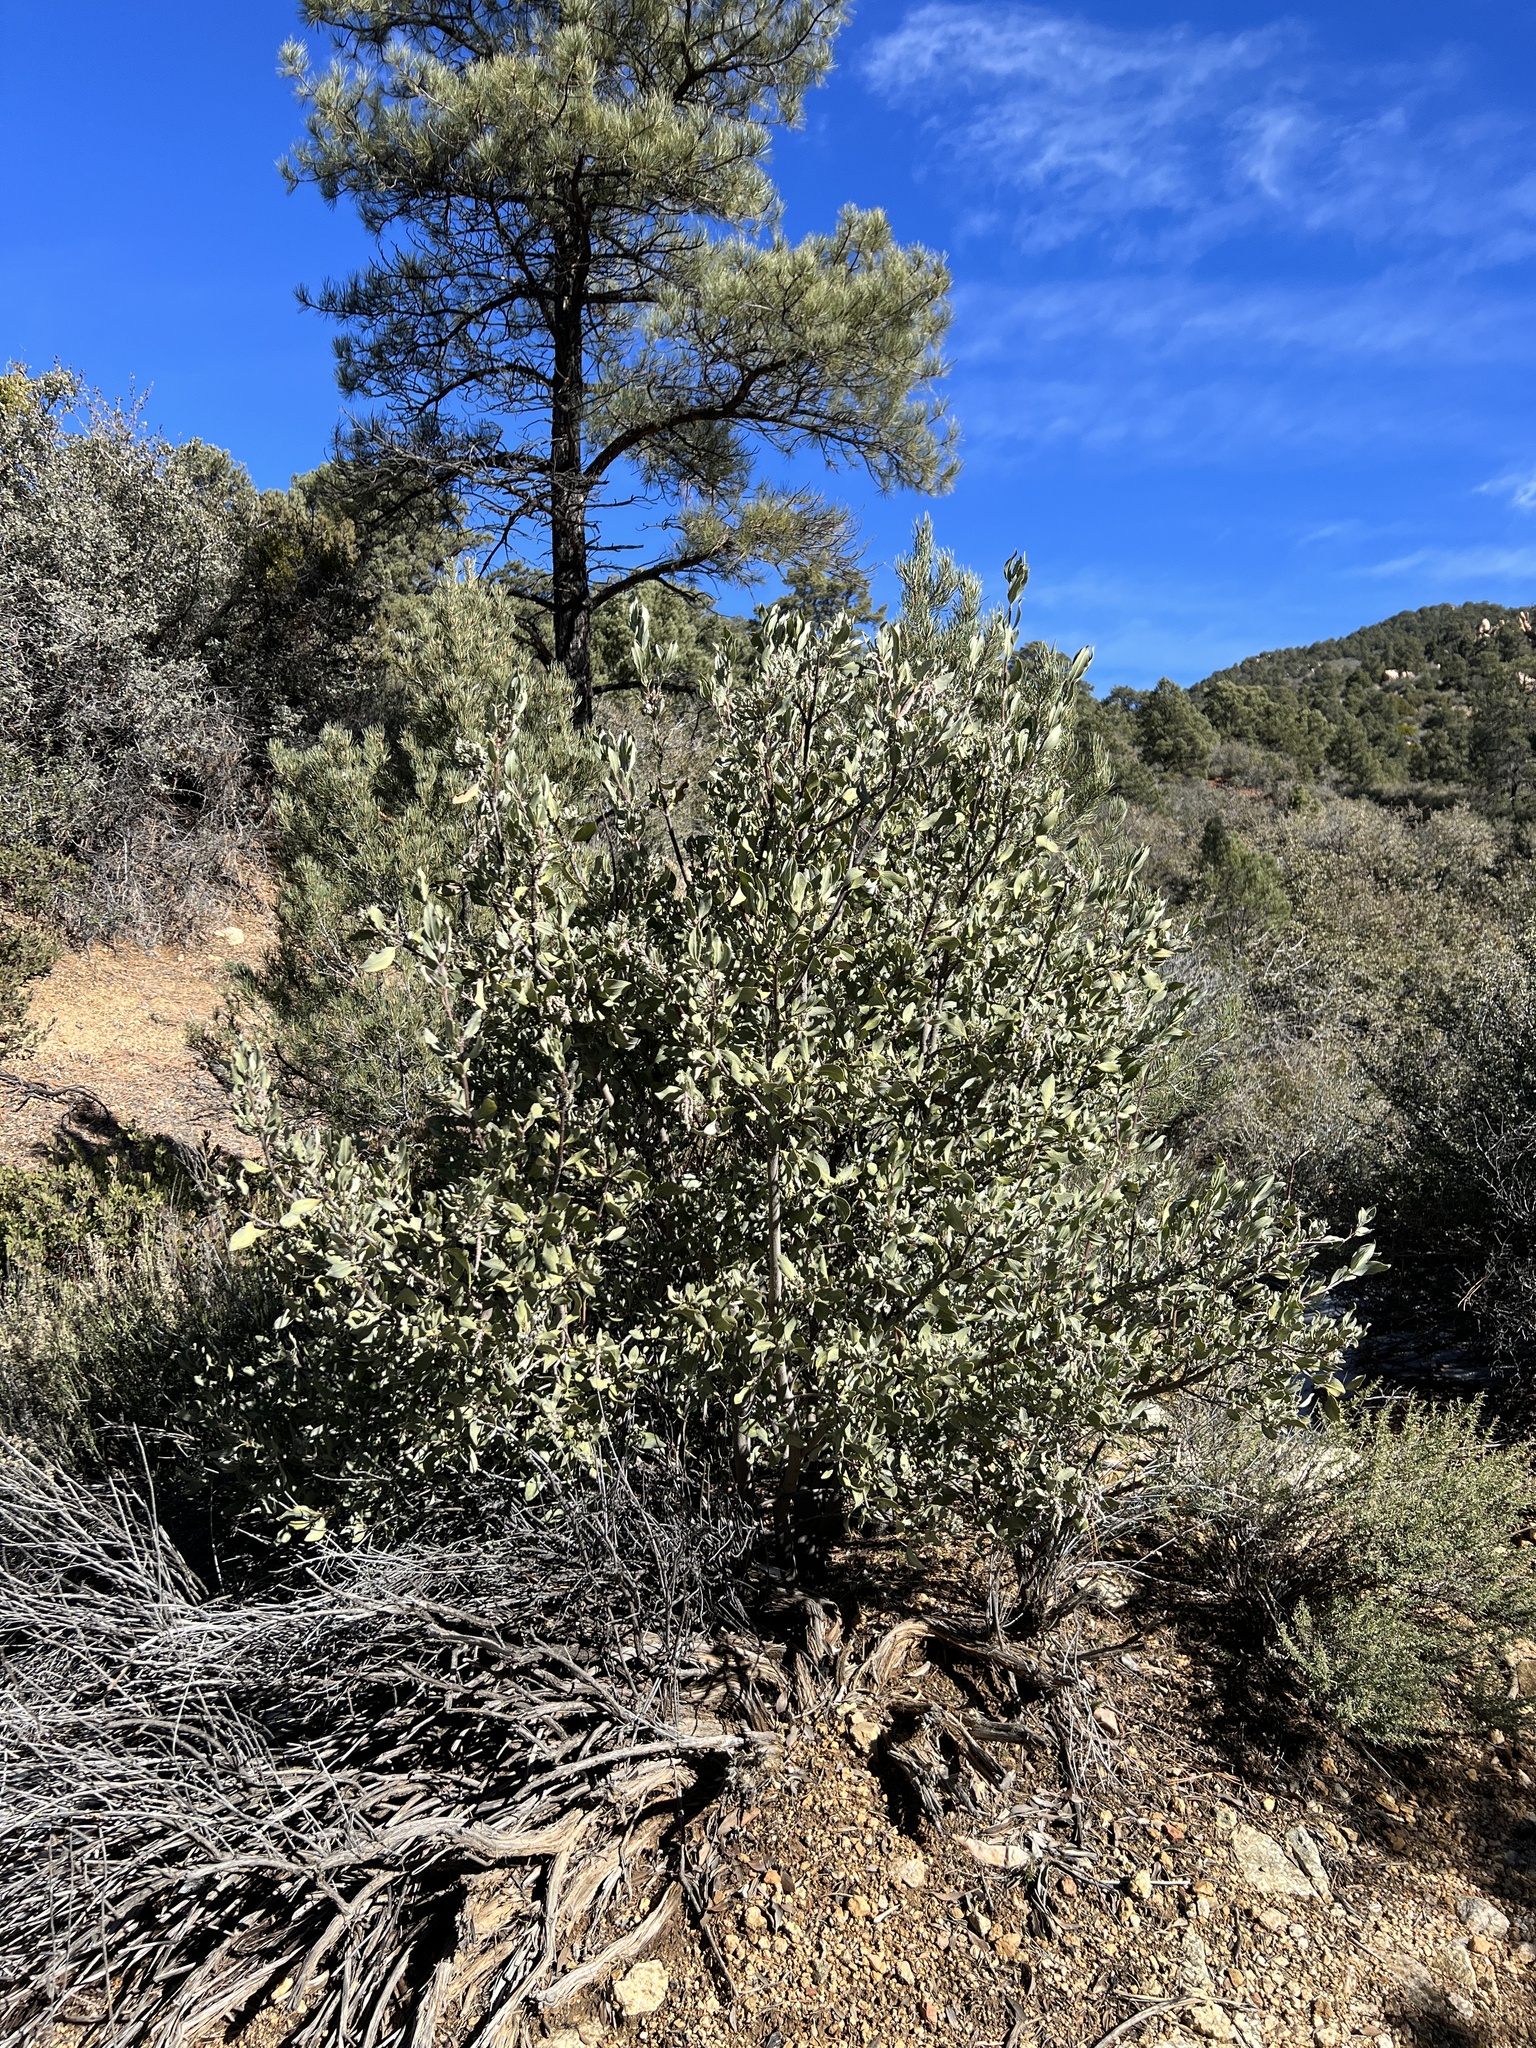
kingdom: Plantae
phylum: Tracheophyta
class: Magnoliopsida
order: Garryales
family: Garryaceae
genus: Garrya
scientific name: Garrya flavescens
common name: Ashy silk-tassel
